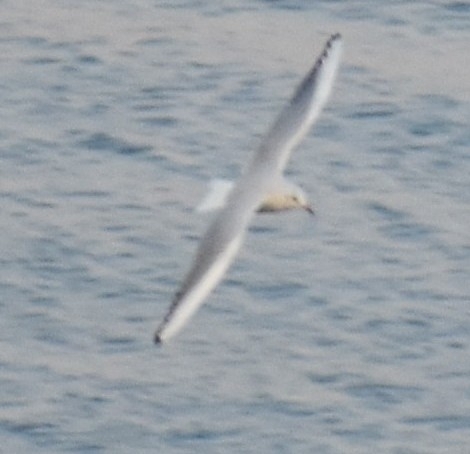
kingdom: Animalia
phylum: Chordata
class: Aves
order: Charadriiformes
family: Laridae
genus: Chroicocephalus
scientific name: Chroicocephalus ridibundus
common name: Black-headed gull
